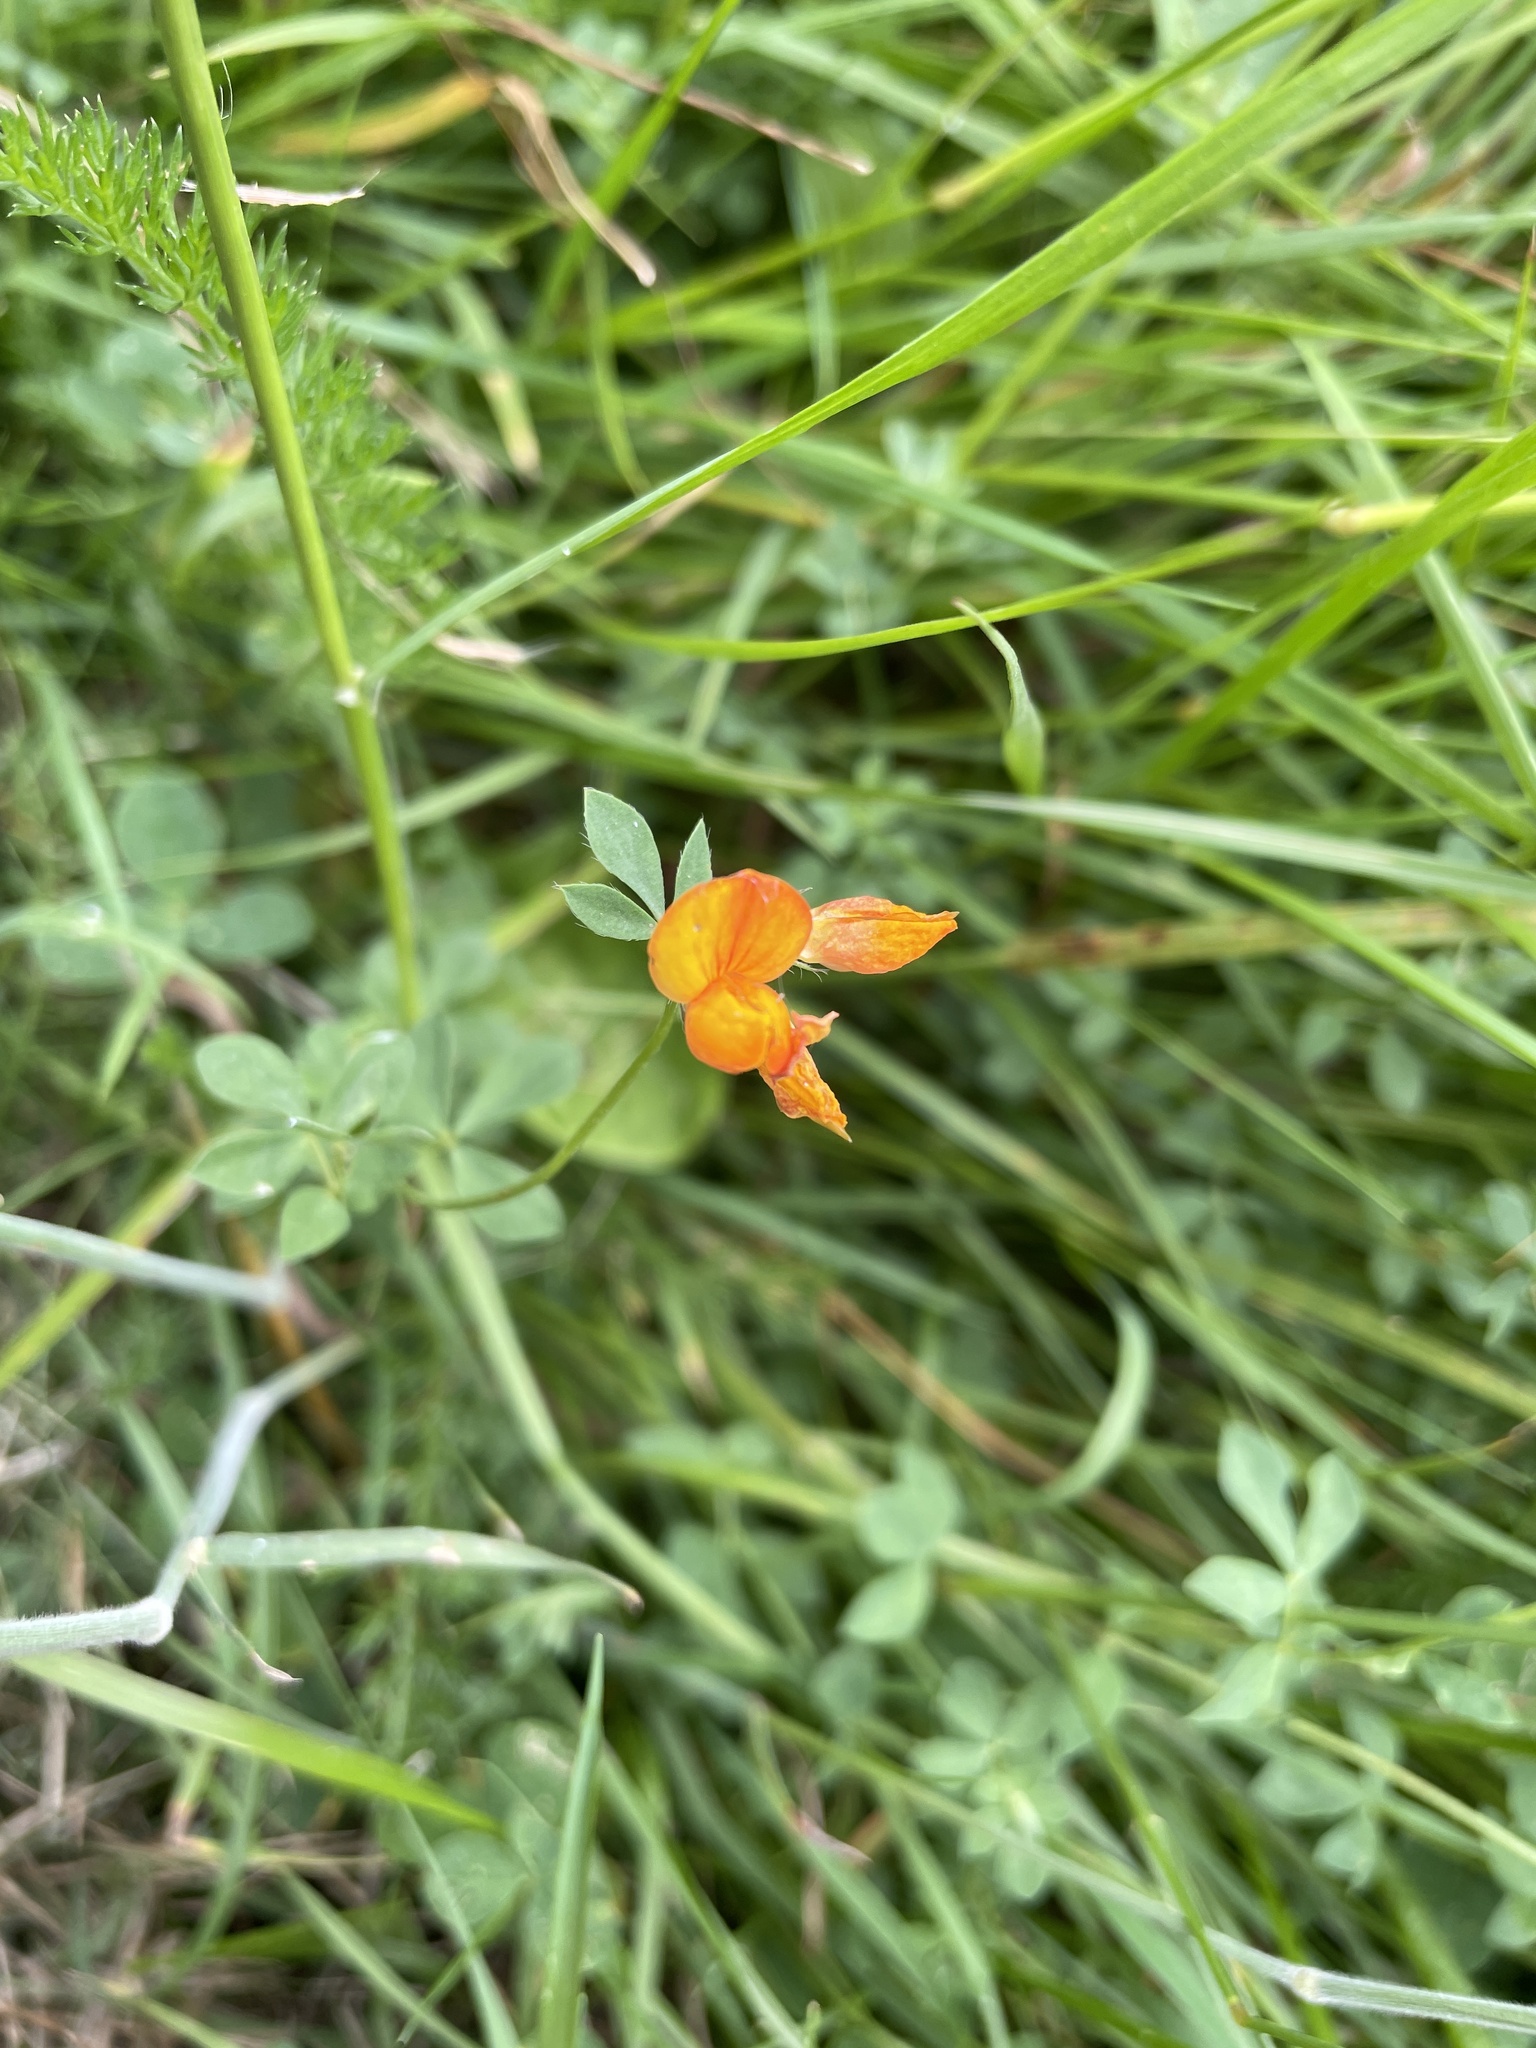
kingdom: Plantae
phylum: Tracheophyta
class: Magnoliopsida
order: Fabales
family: Fabaceae
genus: Lotus
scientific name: Lotus corniculatus
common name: Common bird's-foot-trefoil
